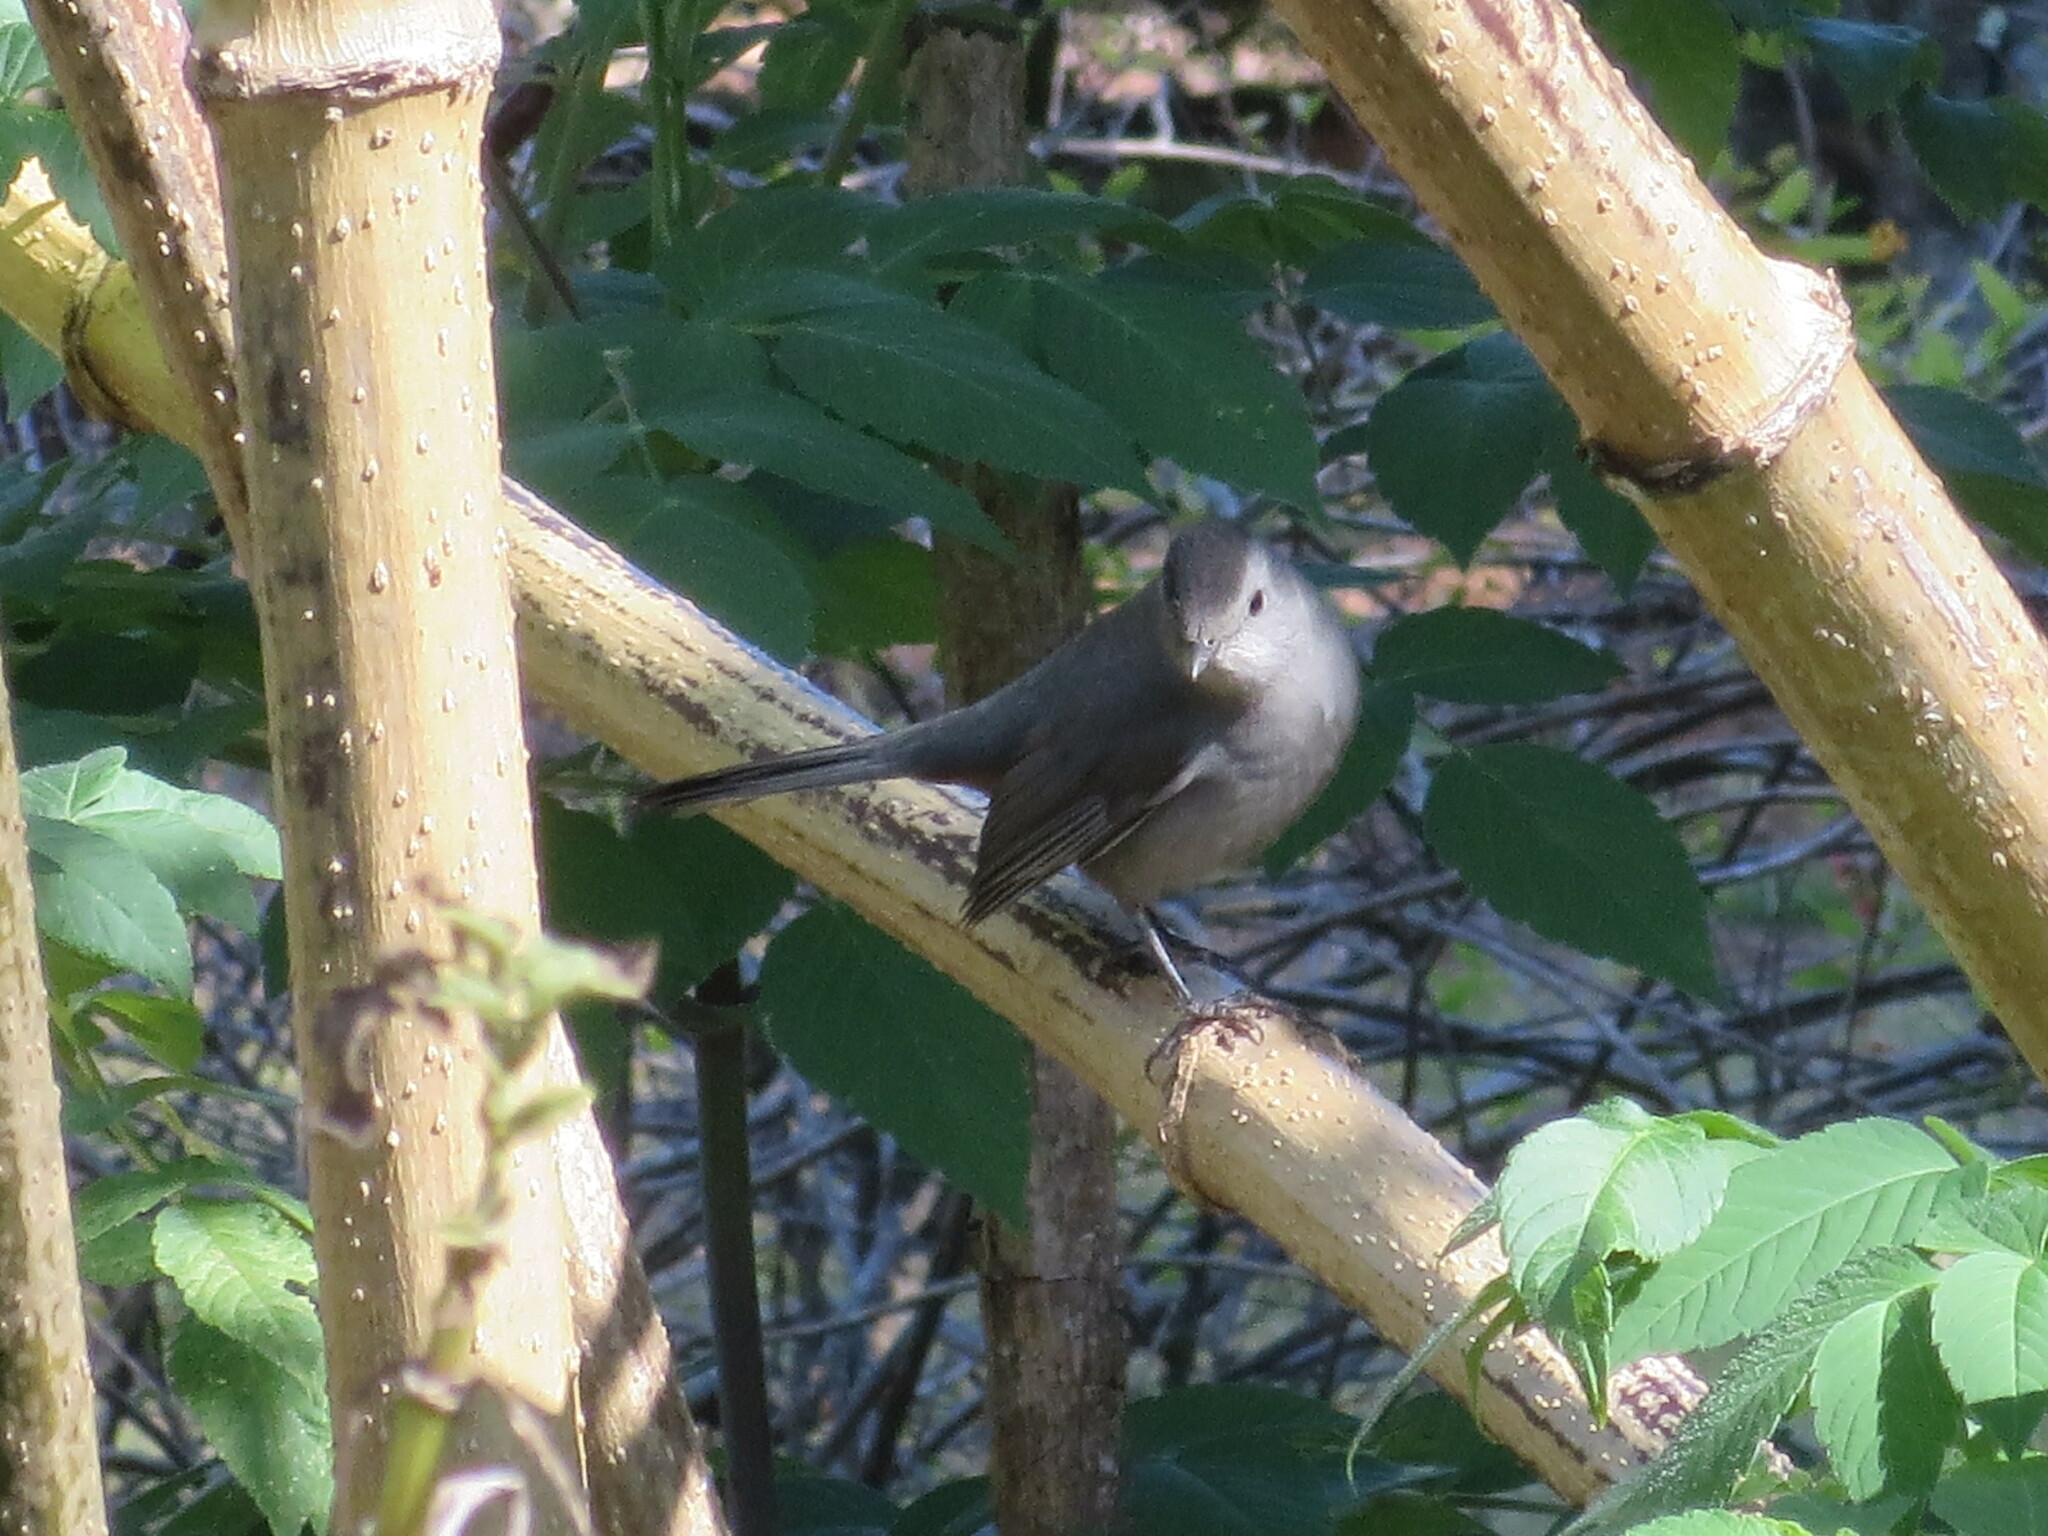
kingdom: Animalia
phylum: Chordata
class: Aves
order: Passeriformes
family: Mimidae
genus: Dumetella
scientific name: Dumetella carolinensis
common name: Gray catbird
